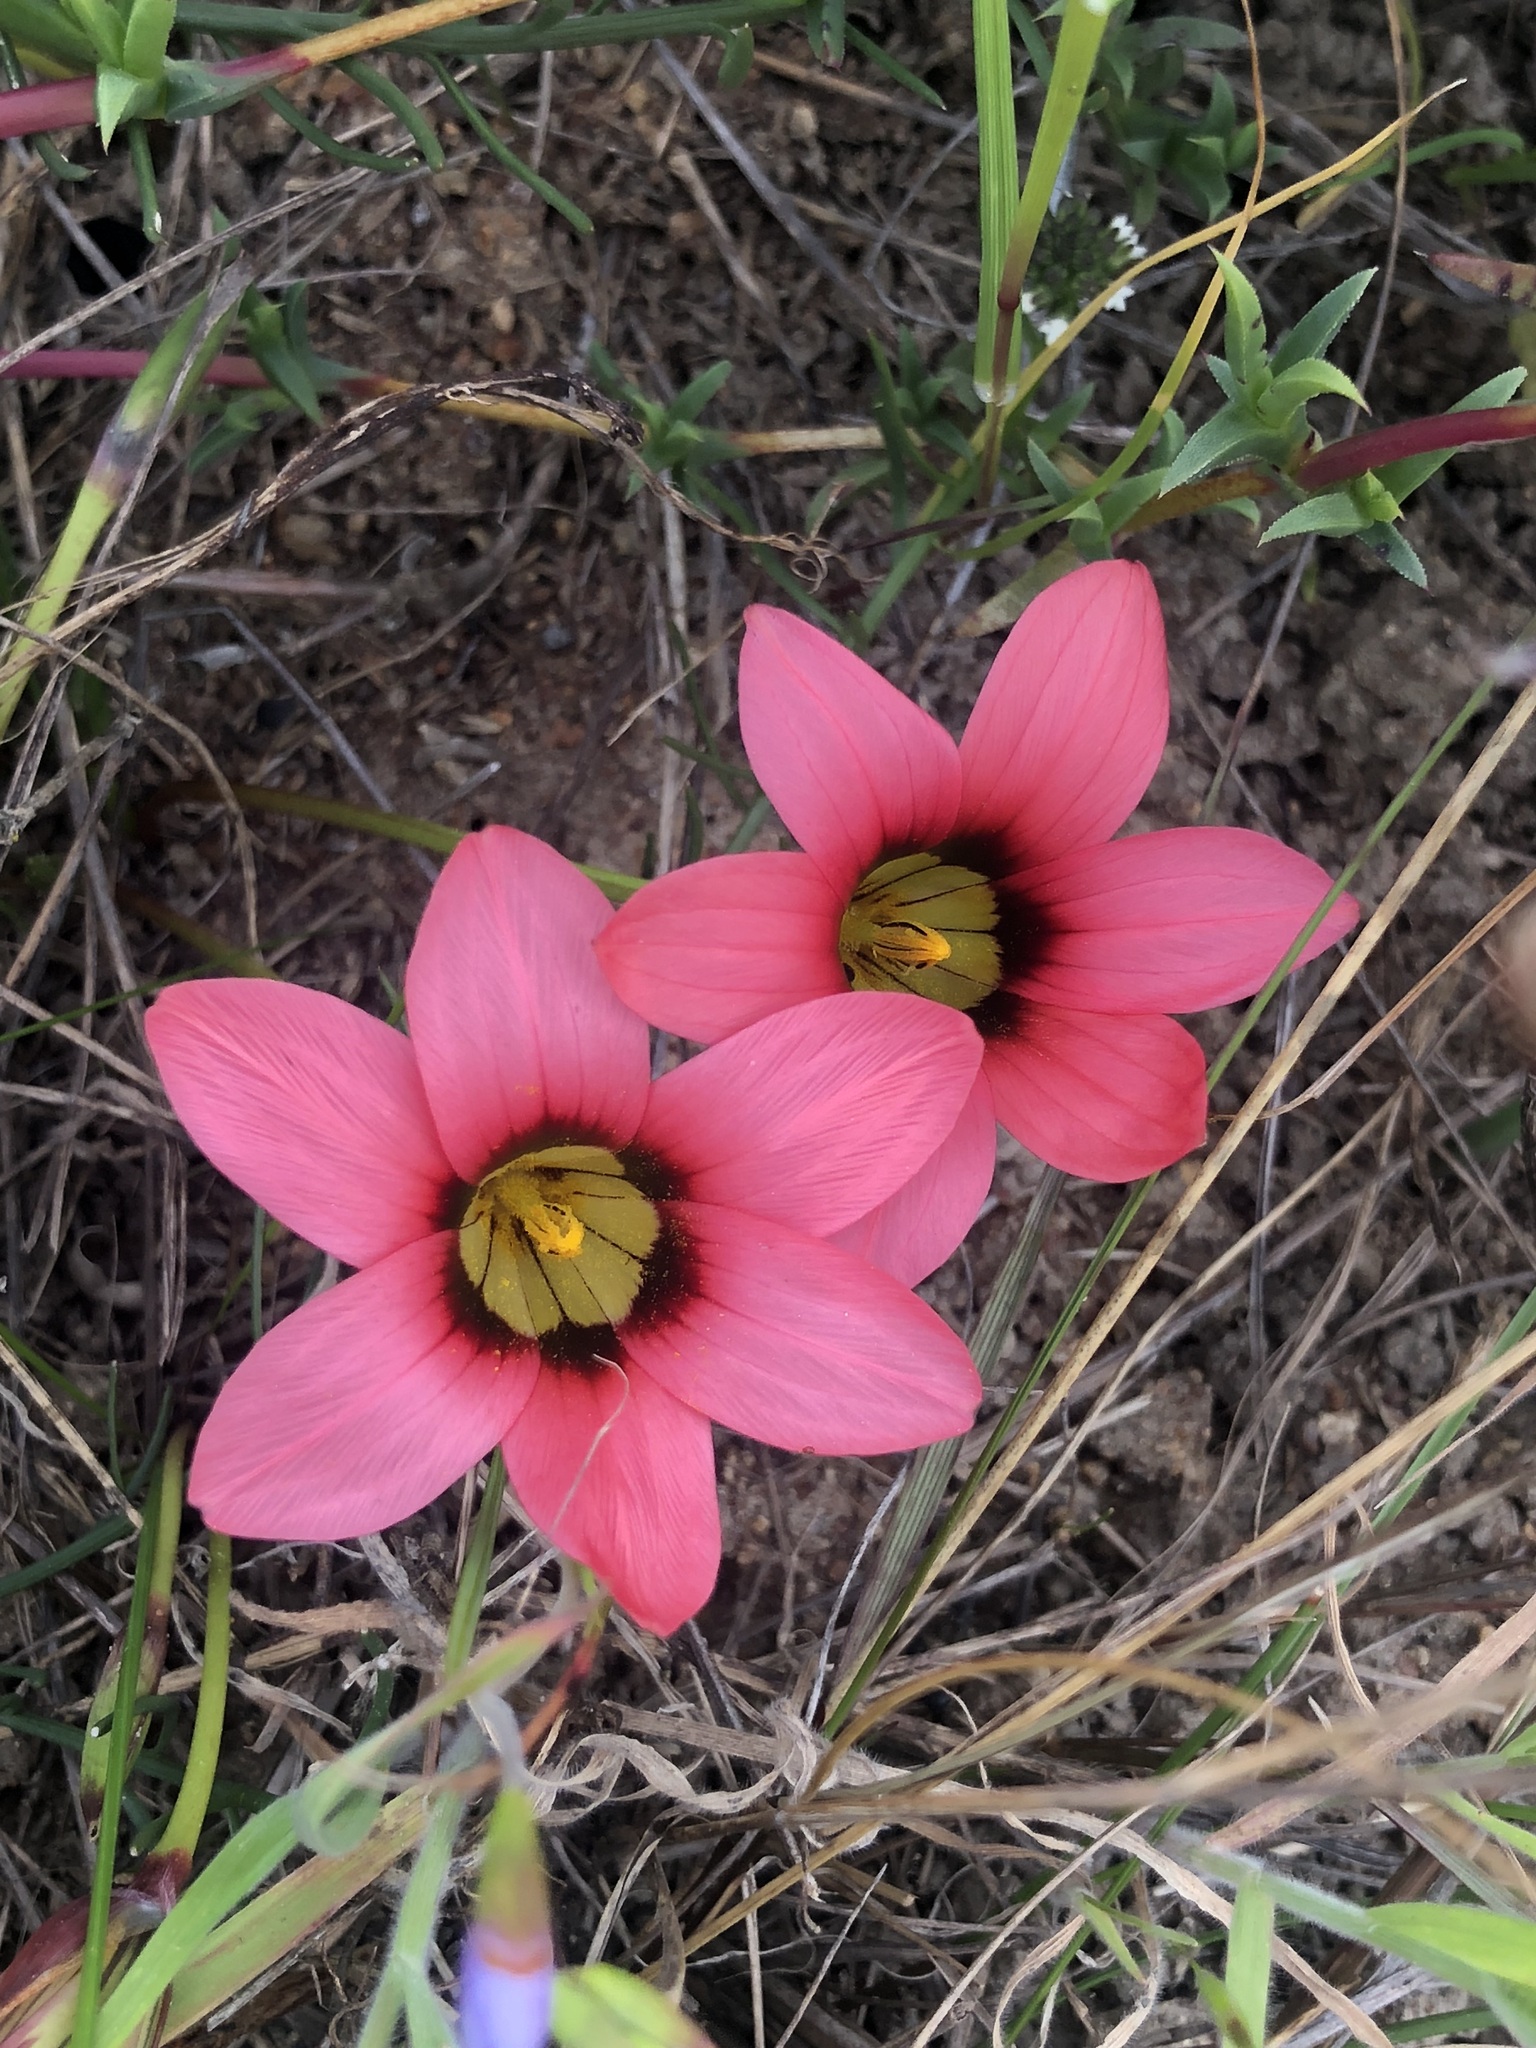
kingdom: Plantae
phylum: Tracheophyta
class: Liliopsida
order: Asparagales
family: Iridaceae
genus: Romulea
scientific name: Romulea hirsuta
